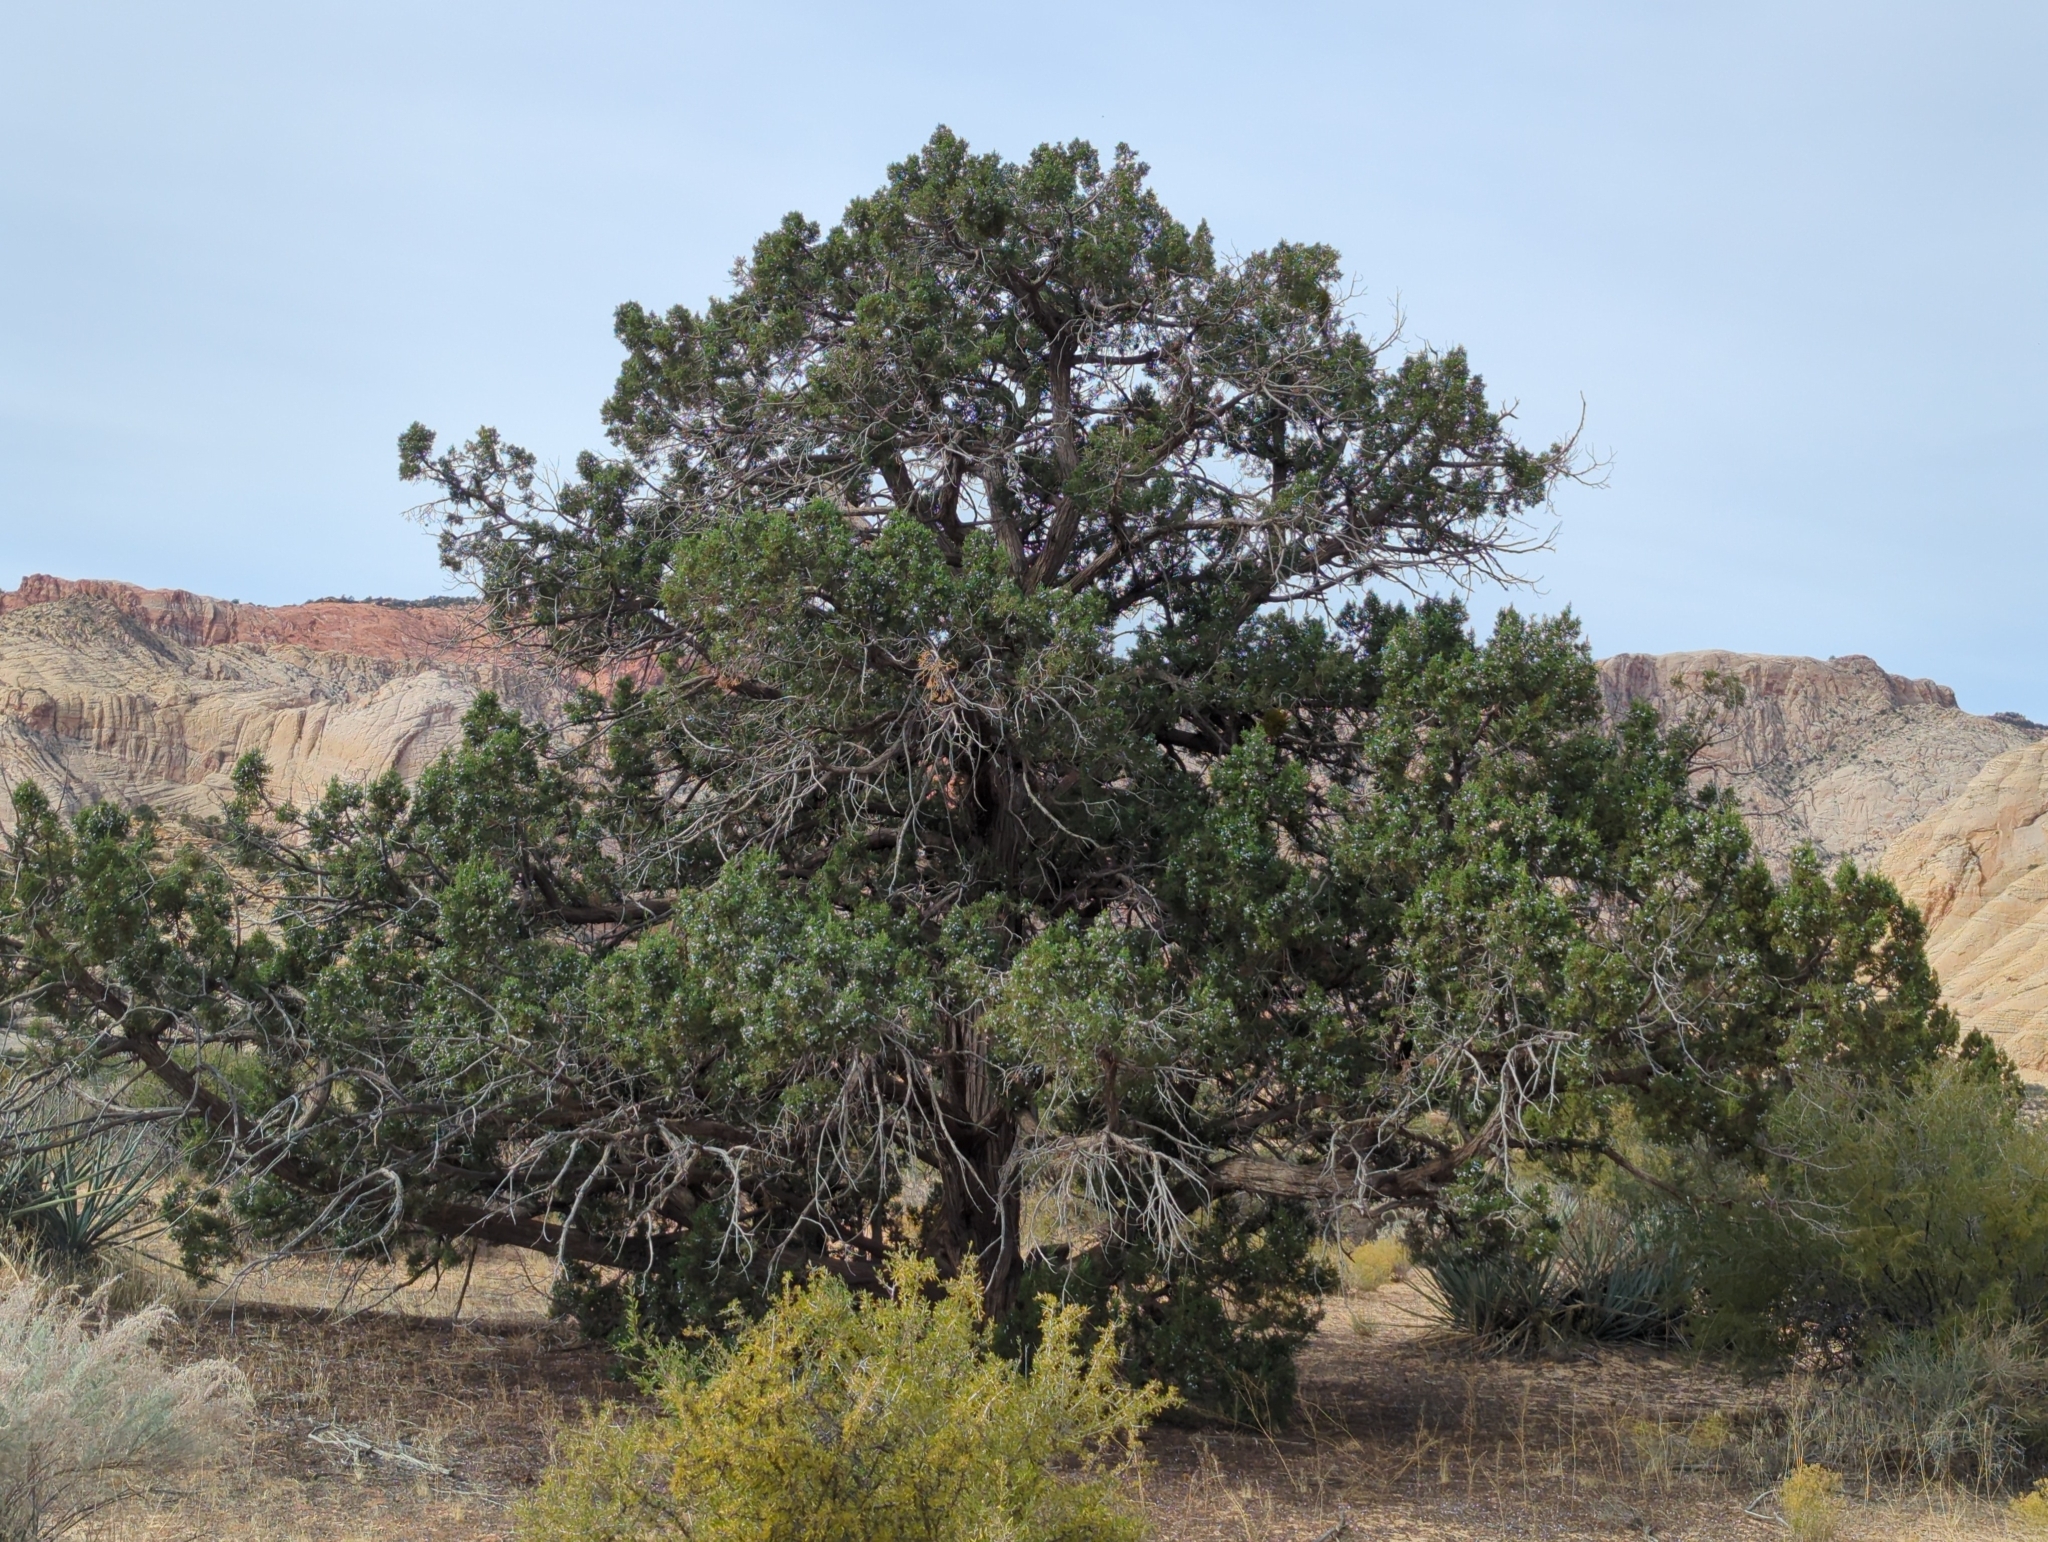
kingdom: Plantae
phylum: Tracheophyta
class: Pinopsida
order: Pinales
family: Cupressaceae
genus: Juniperus
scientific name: Juniperus osteosperma
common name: Utah juniper
